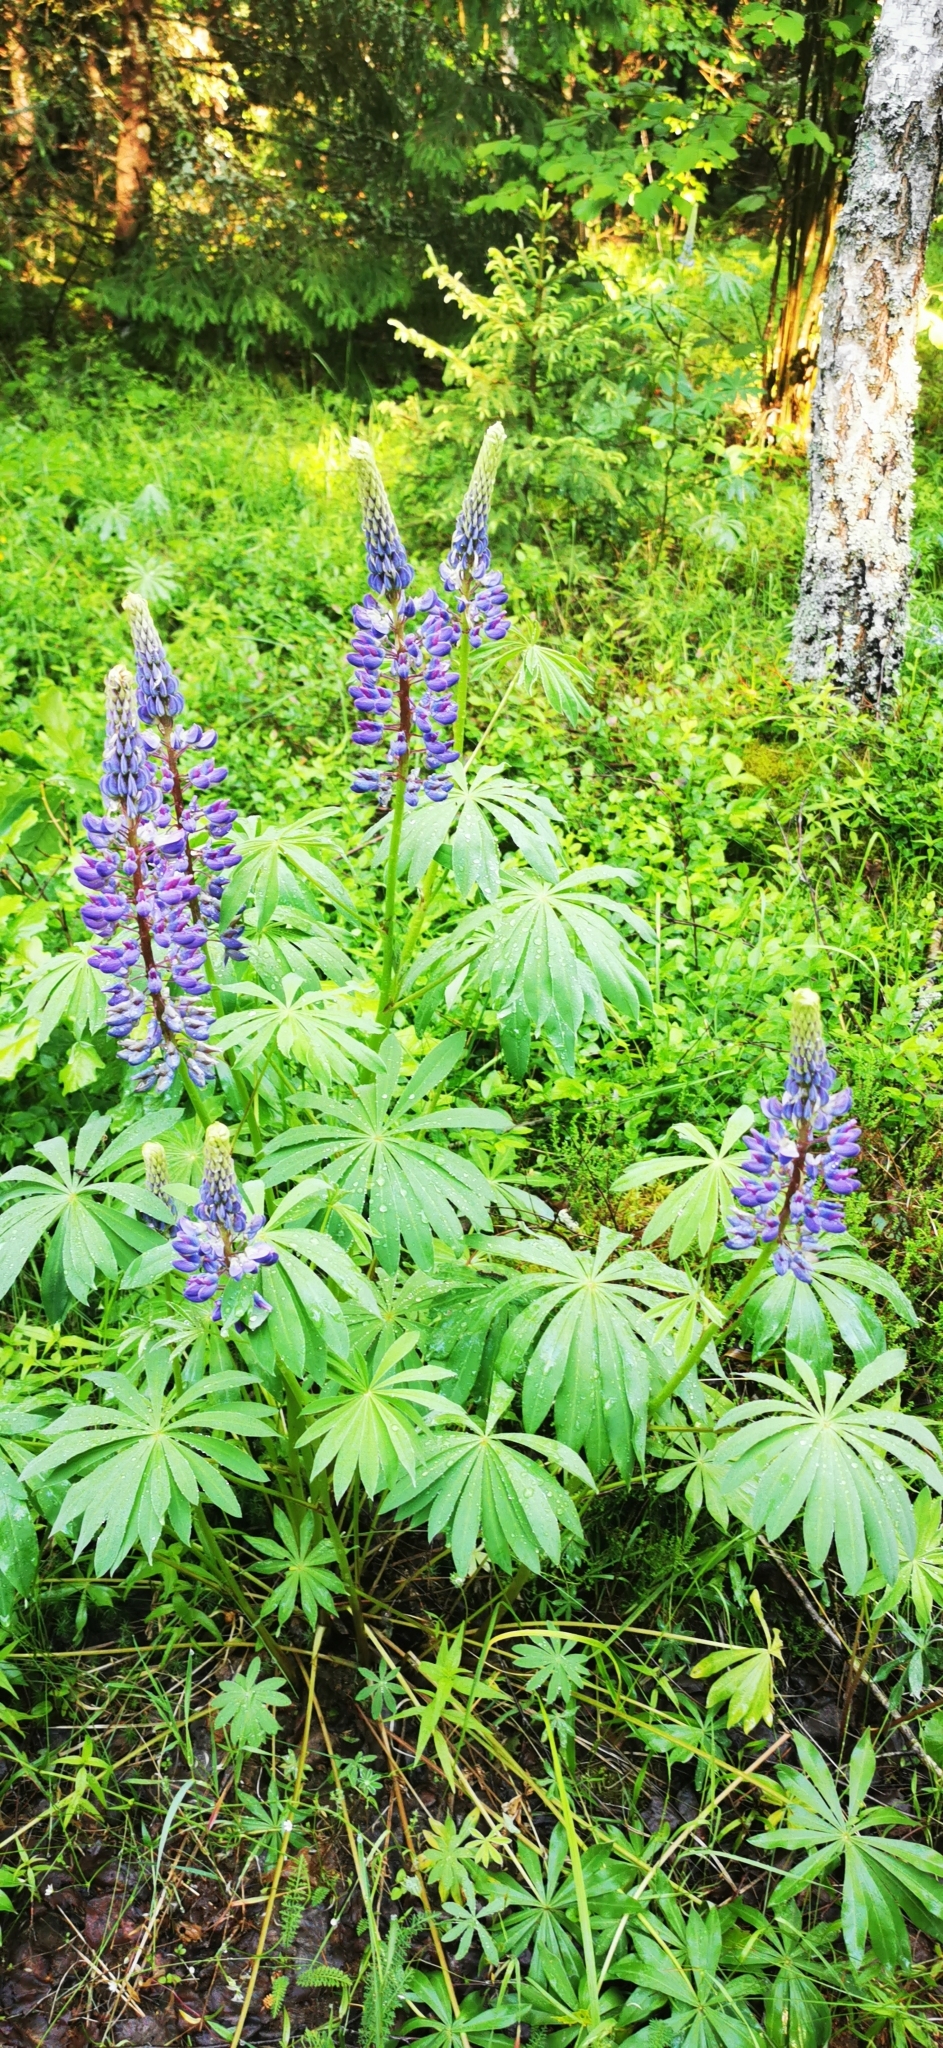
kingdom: Plantae
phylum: Tracheophyta
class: Magnoliopsida
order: Fabales
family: Fabaceae
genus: Lupinus
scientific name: Lupinus polyphyllus
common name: Garden lupin
